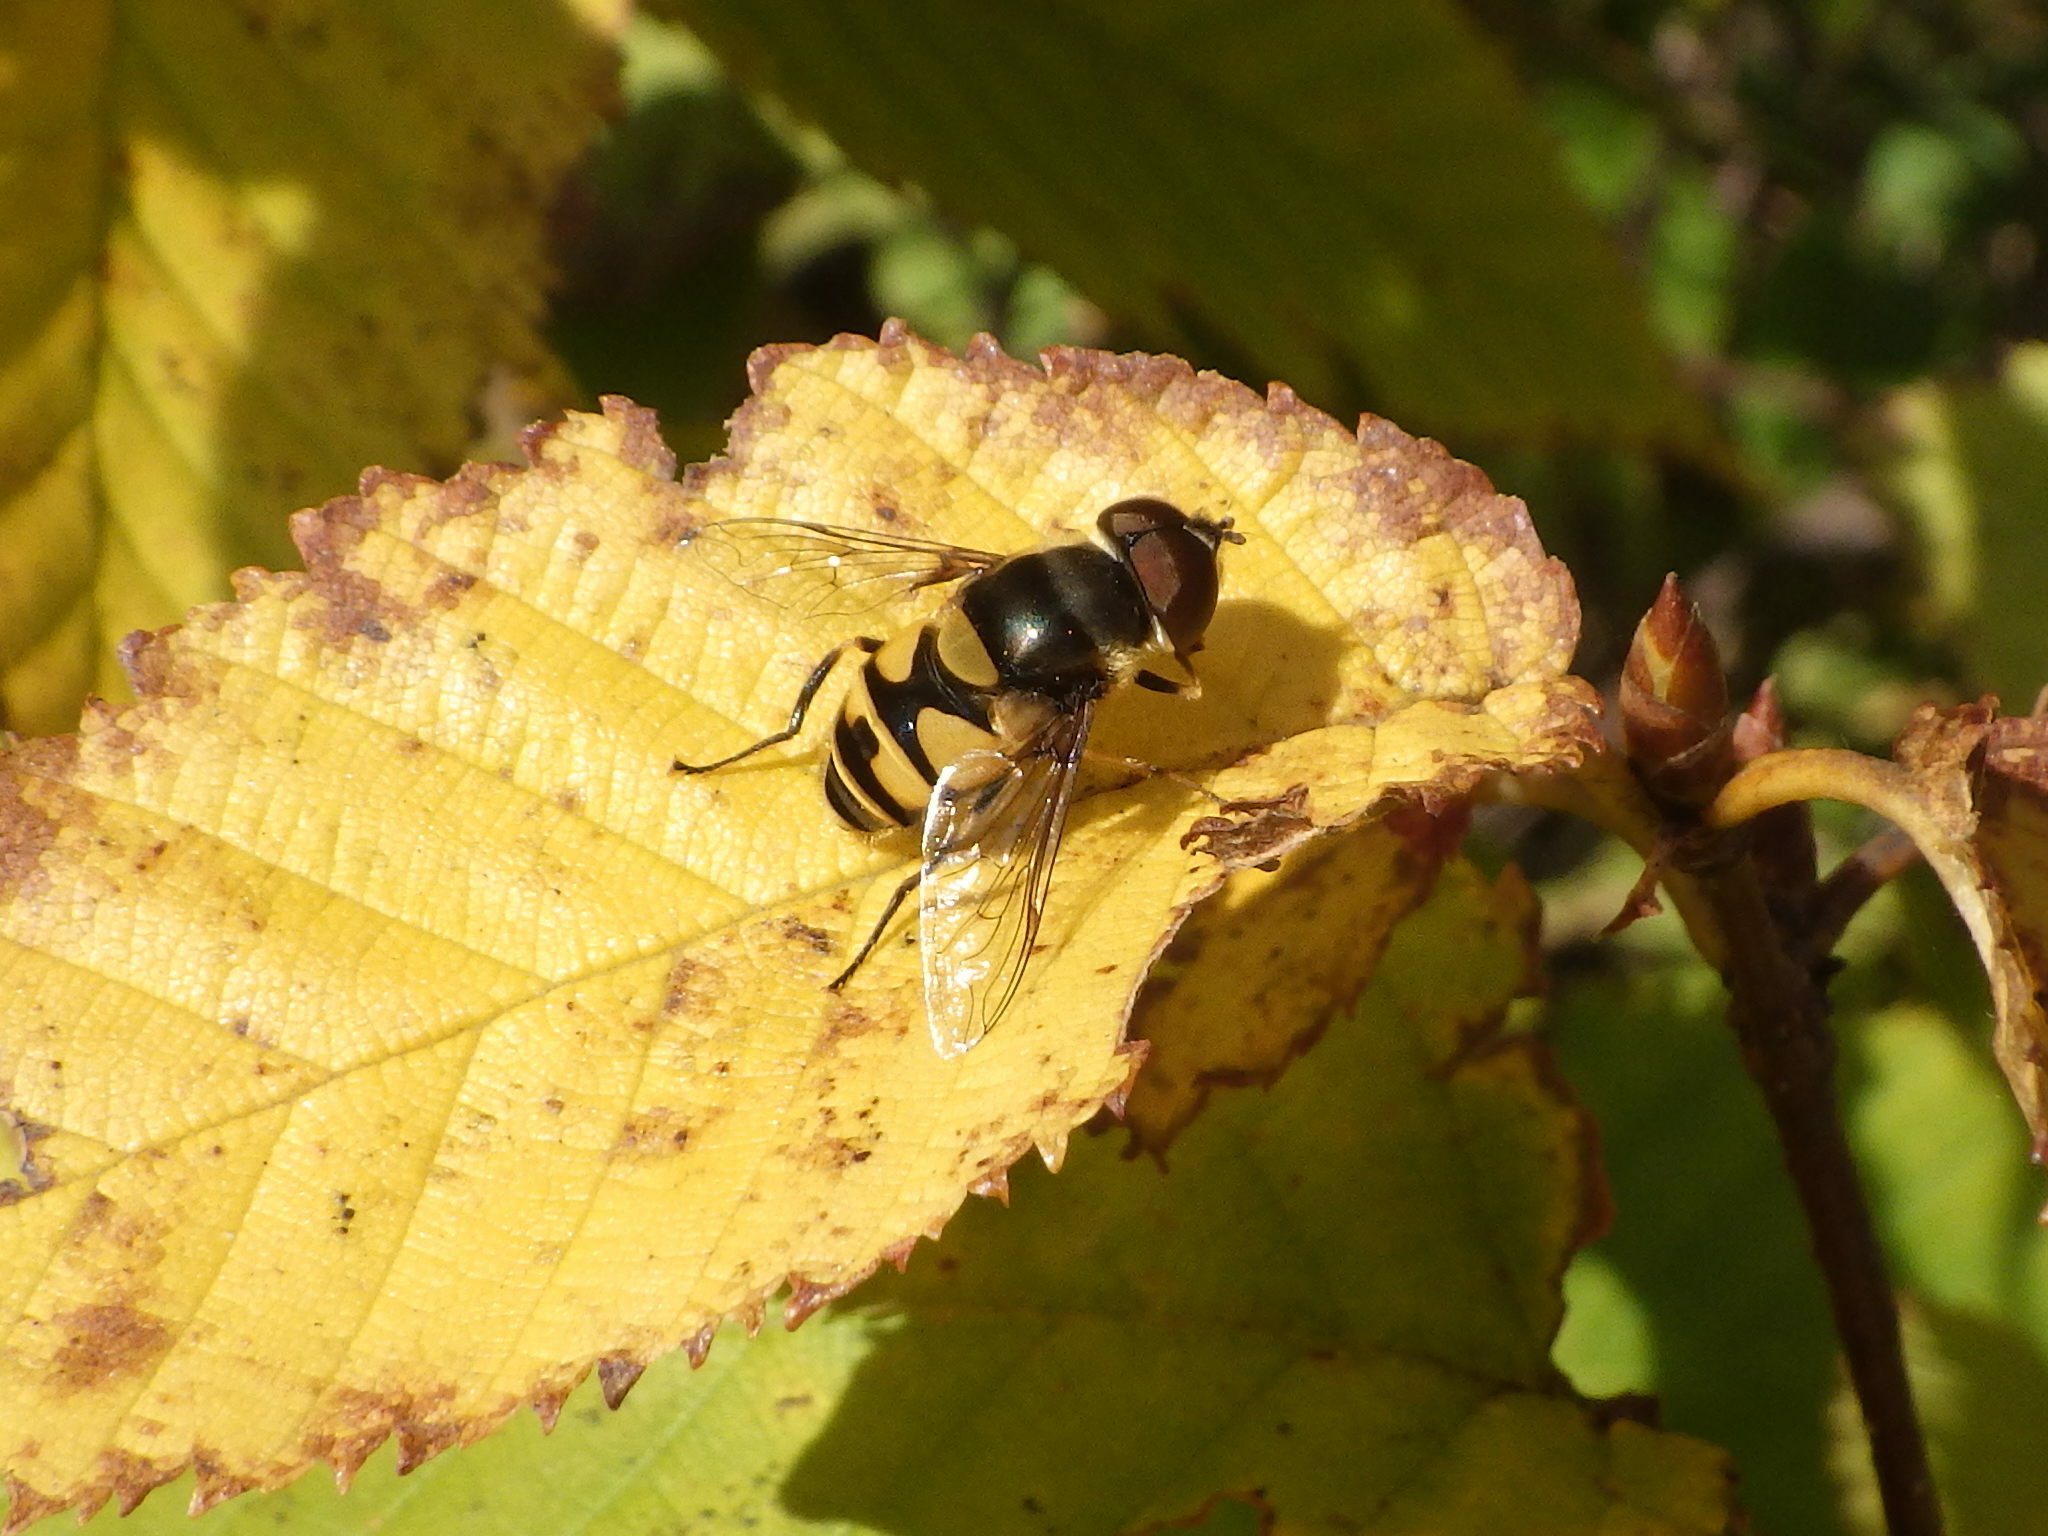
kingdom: Animalia
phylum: Arthropoda
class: Insecta
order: Diptera
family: Syrphidae
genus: Eristalis
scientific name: Eristalis transversa
